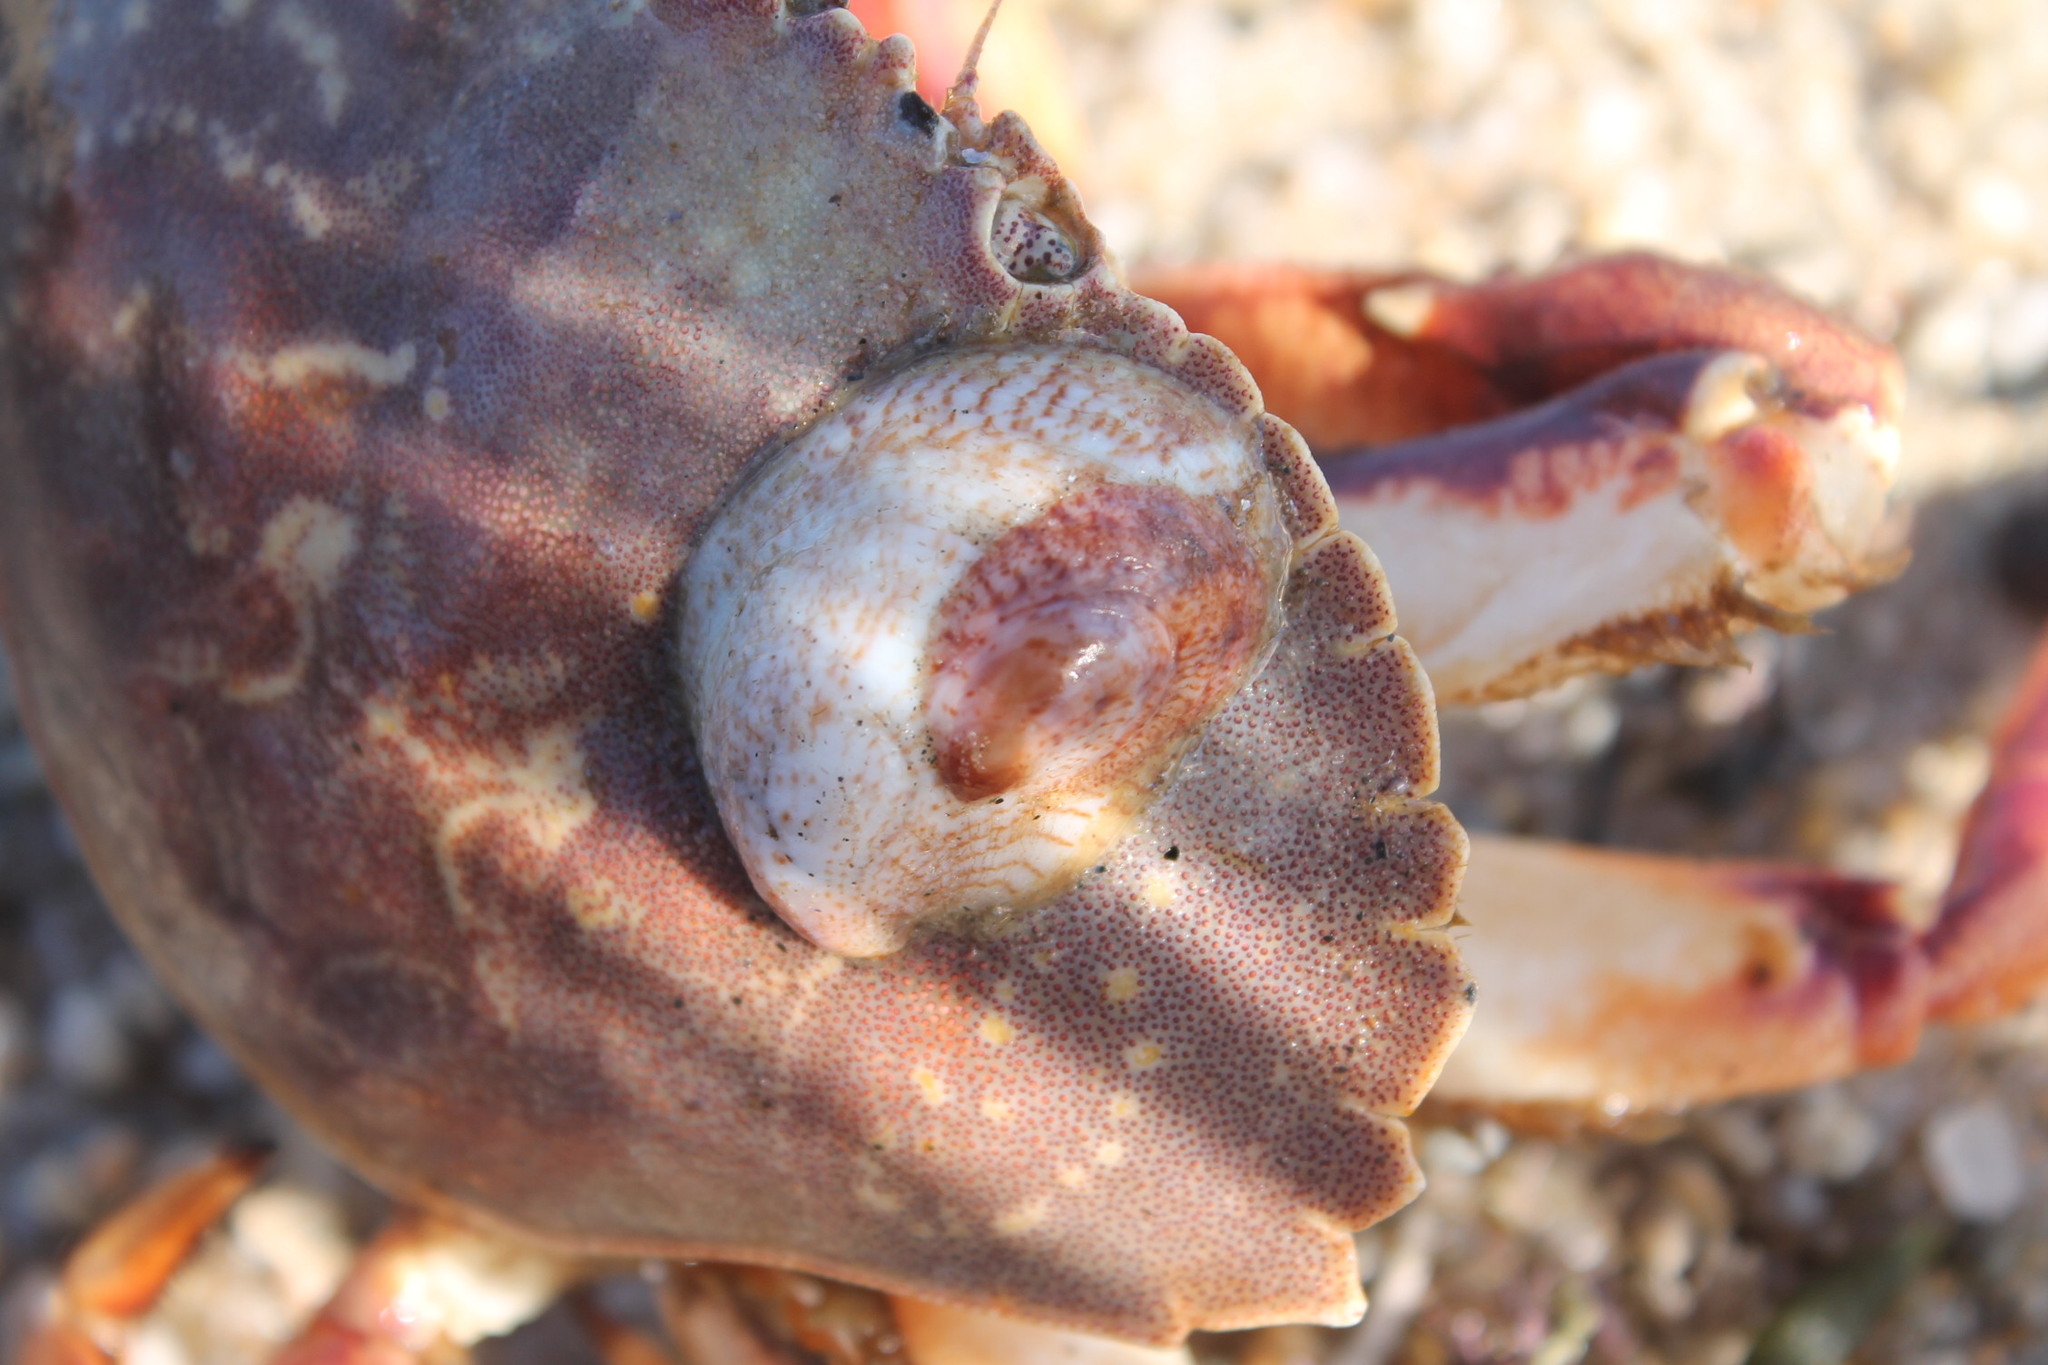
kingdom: Animalia
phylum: Mollusca
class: Gastropoda
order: Littorinimorpha
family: Calyptraeidae
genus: Crepidula
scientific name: Crepidula fornicata
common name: Slipper limpet
